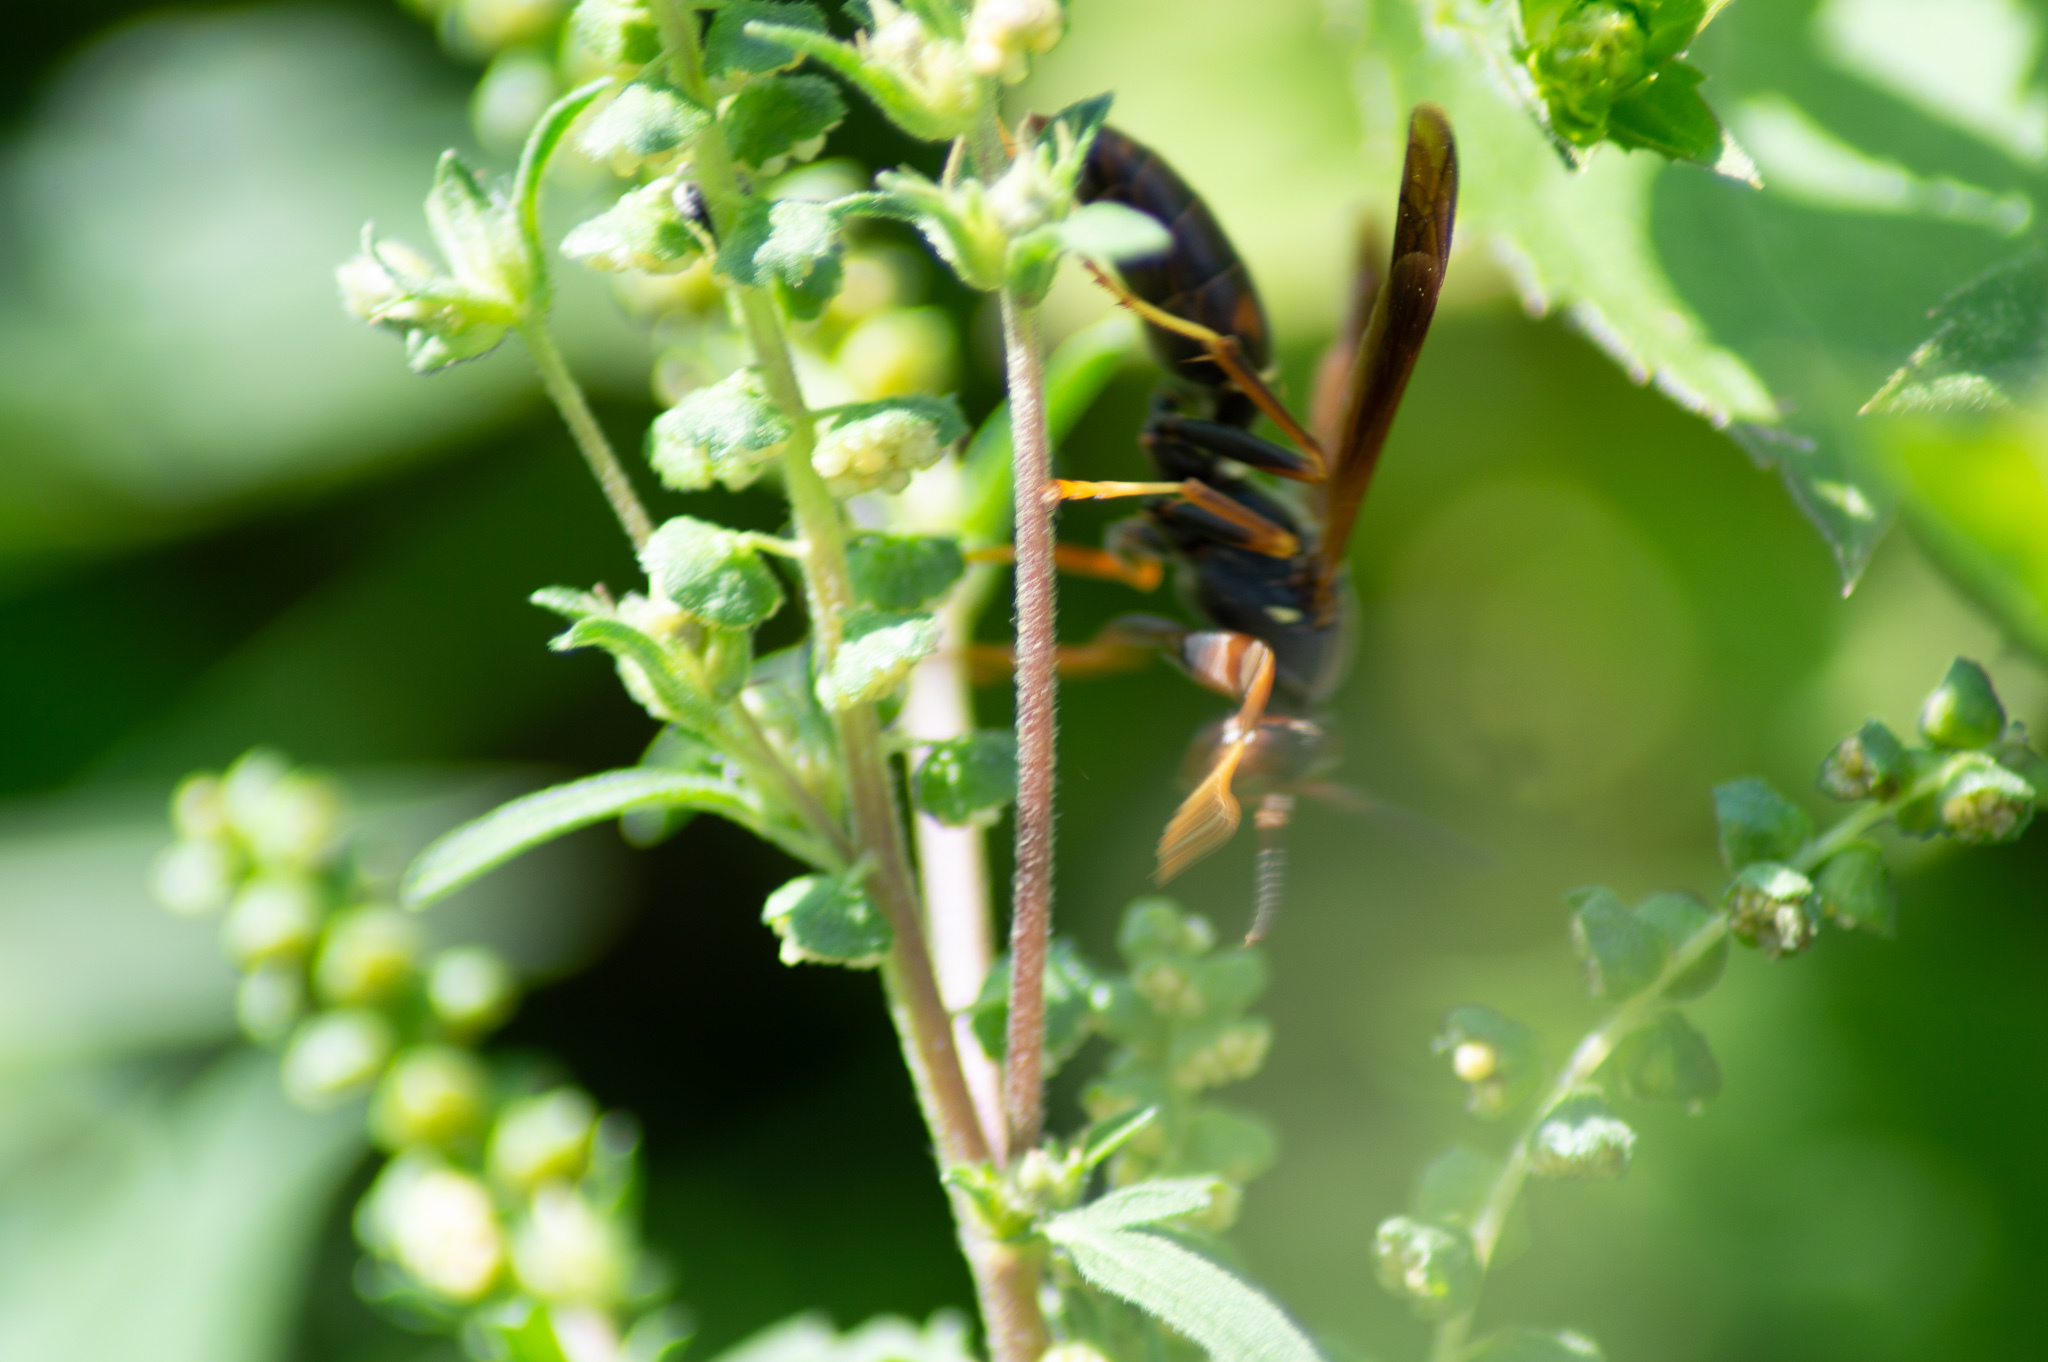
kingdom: Animalia
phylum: Arthropoda
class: Insecta
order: Hymenoptera
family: Eumenidae
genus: Polistes
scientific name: Polistes fuscatus
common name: Dark paper wasp
